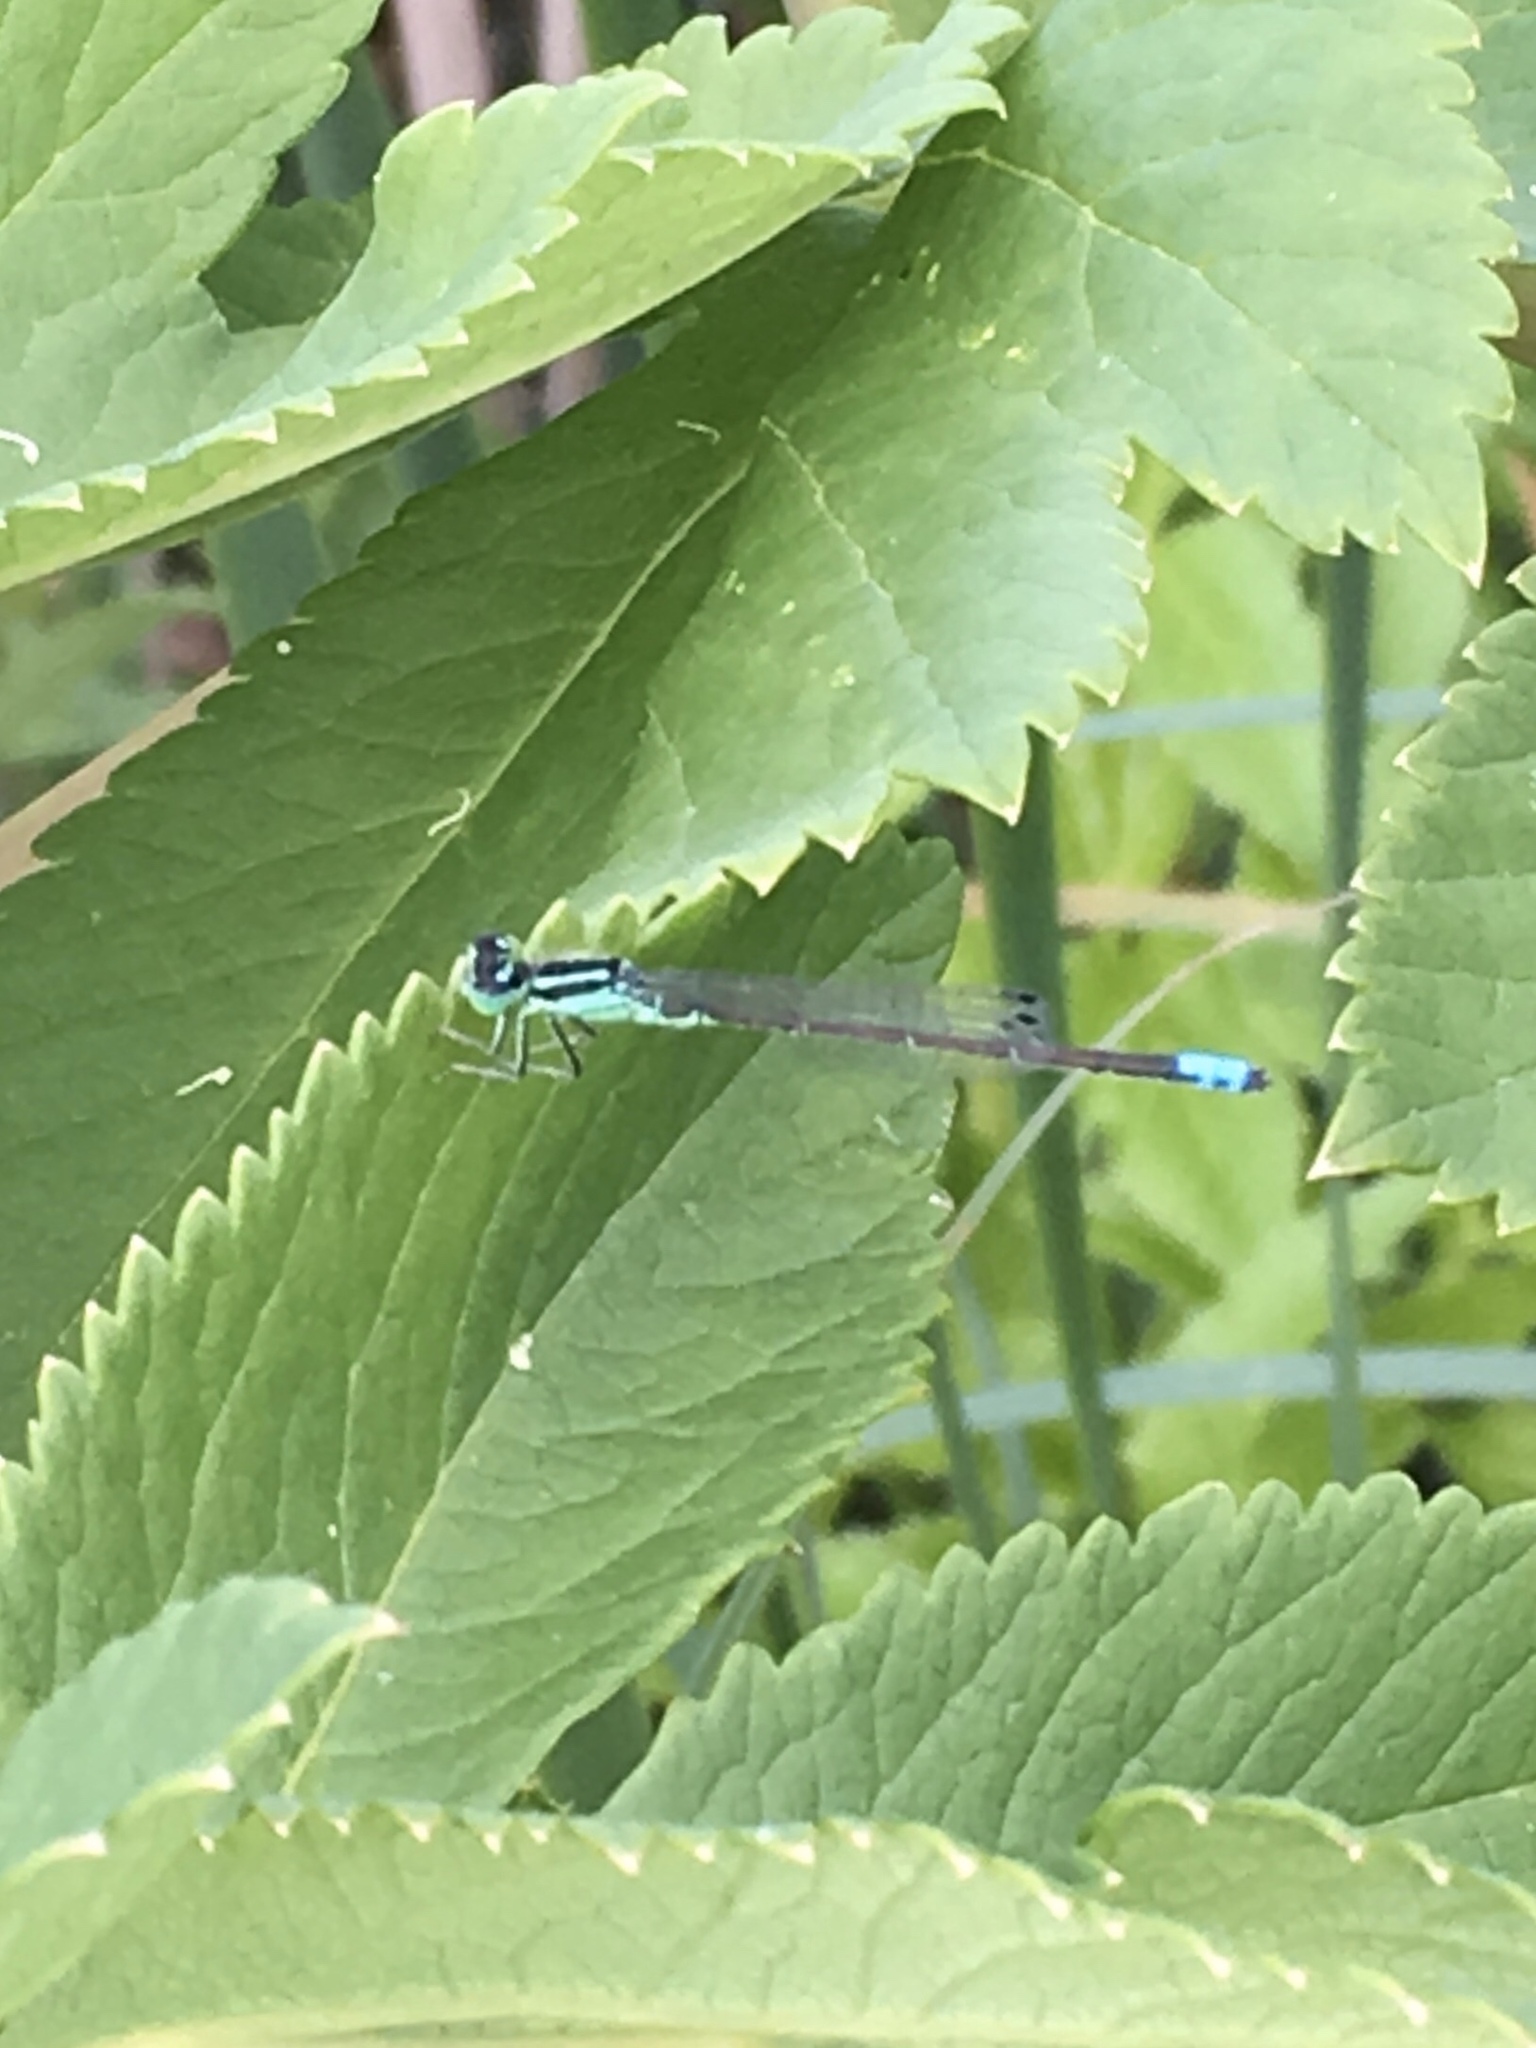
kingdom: Animalia
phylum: Arthropoda
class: Insecta
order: Odonata
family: Coenagrionidae
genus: Ischnura
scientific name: Ischnura verticalis
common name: Eastern forktail
